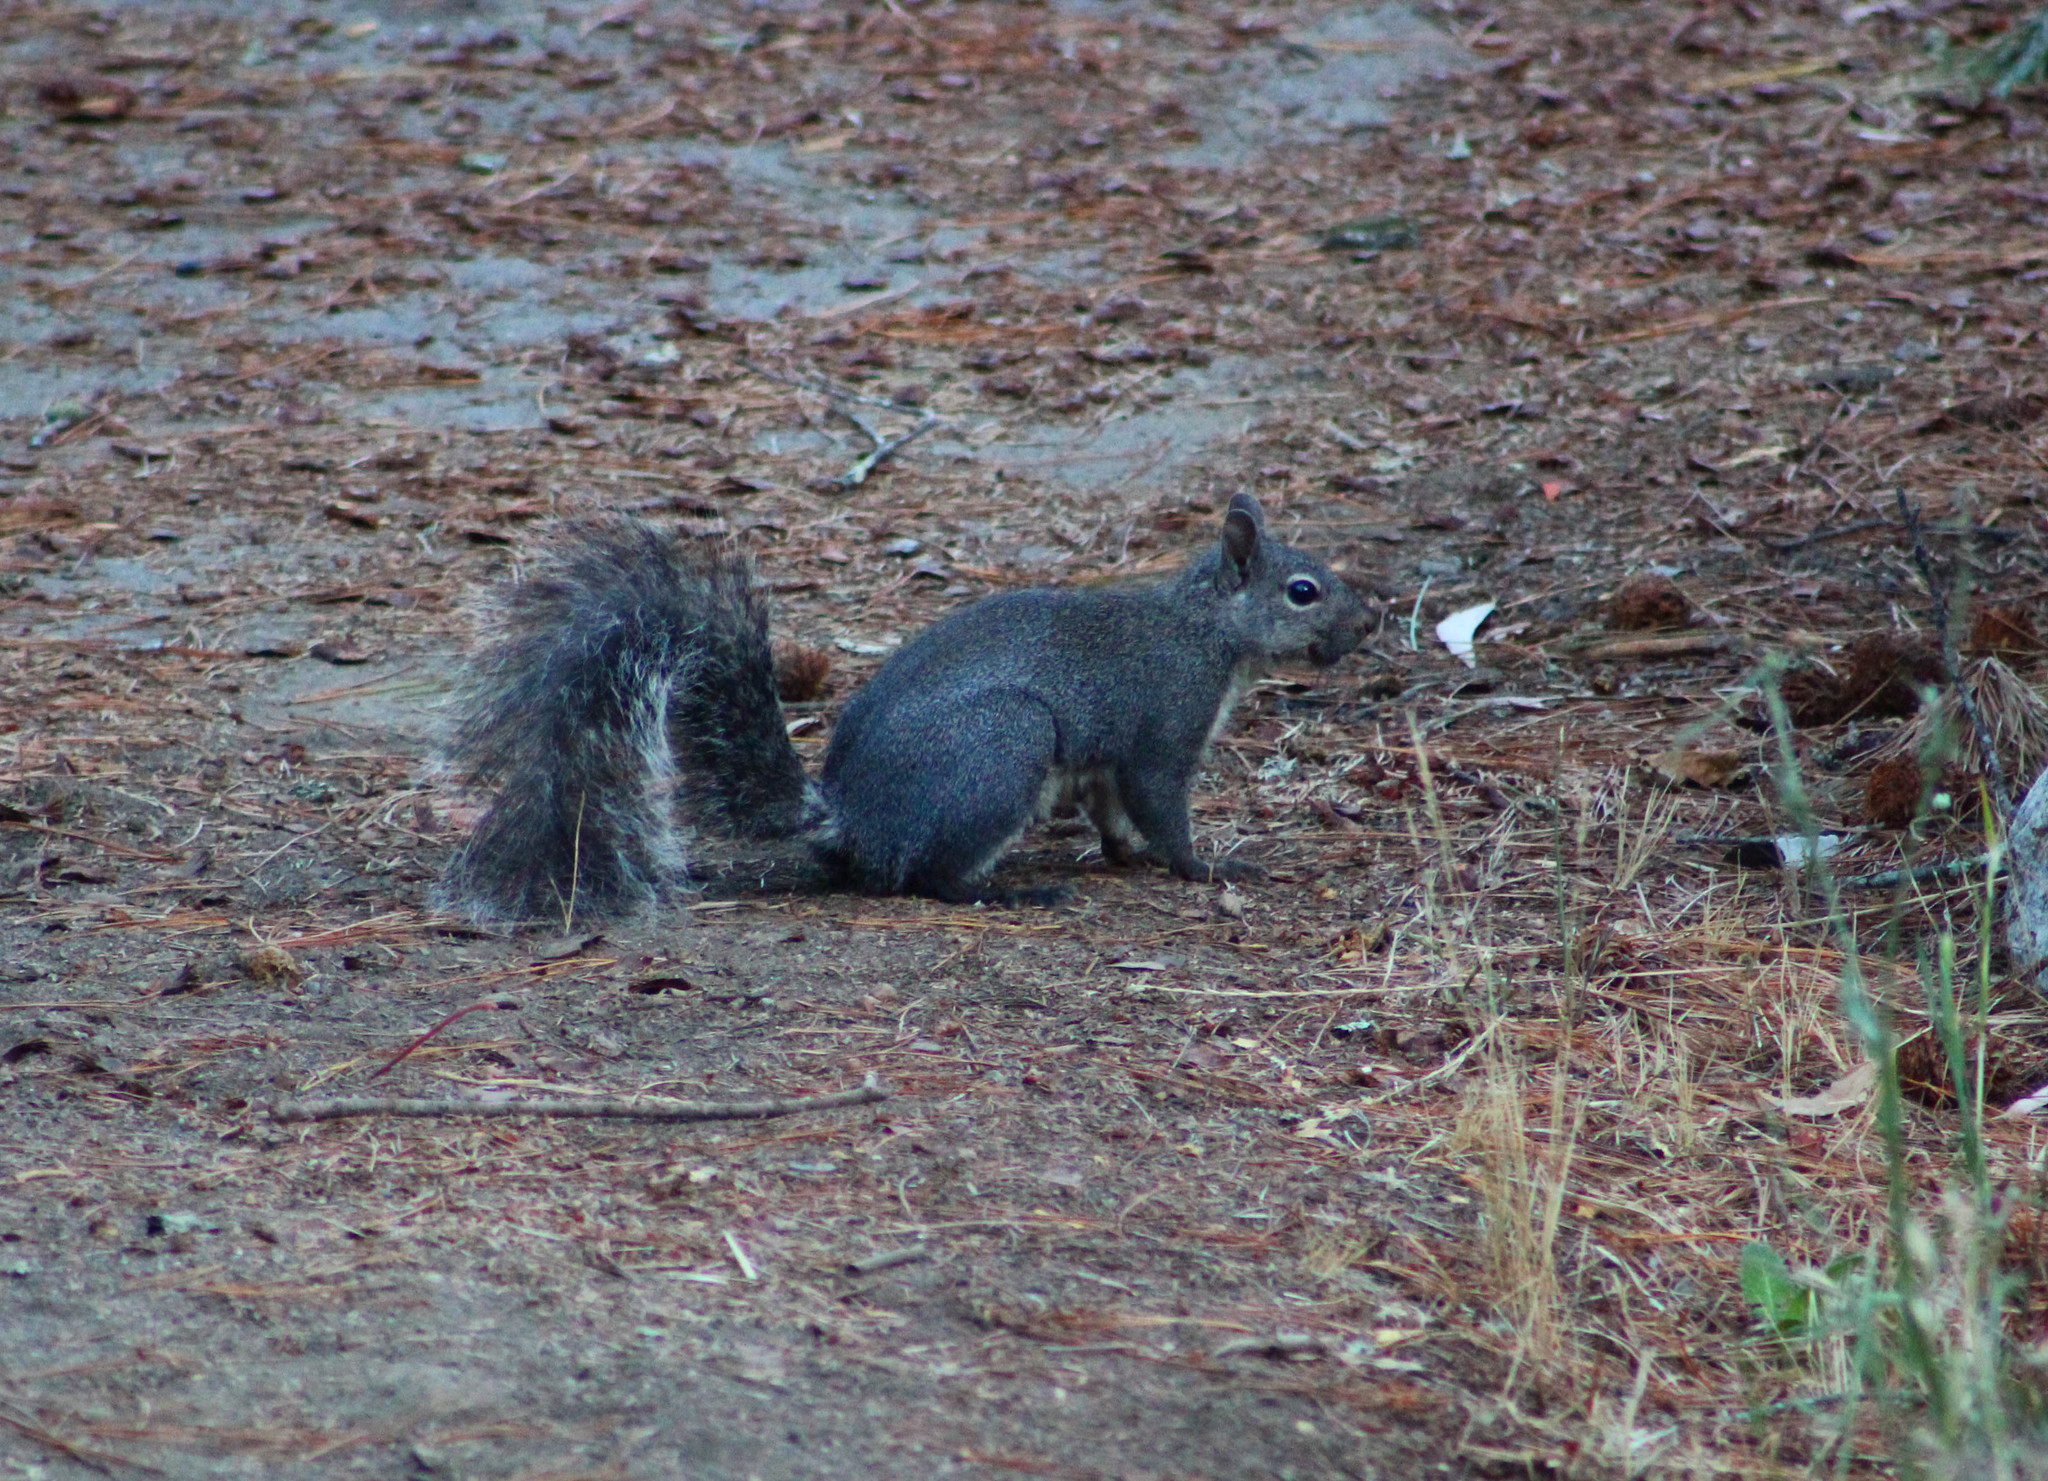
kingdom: Animalia
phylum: Chordata
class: Mammalia
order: Rodentia
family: Sciuridae
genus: Sciurus
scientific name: Sciurus griseus
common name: Western gray squirrel
